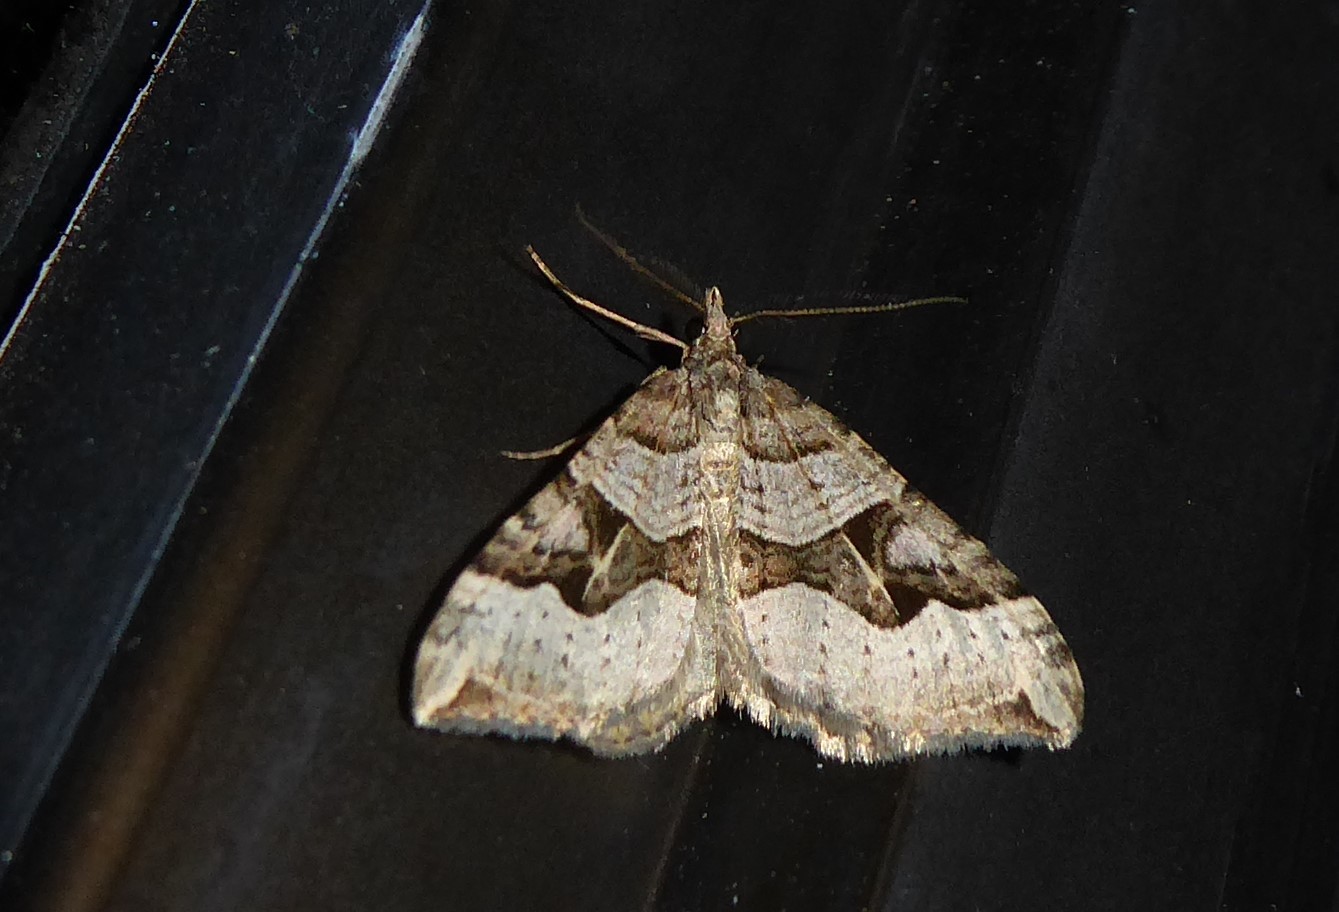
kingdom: Animalia
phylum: Arthropoda
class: Insecta
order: Lepidoptera
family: Geometridae
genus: Xanthorhoe
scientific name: Xanthorhoe semifissata
